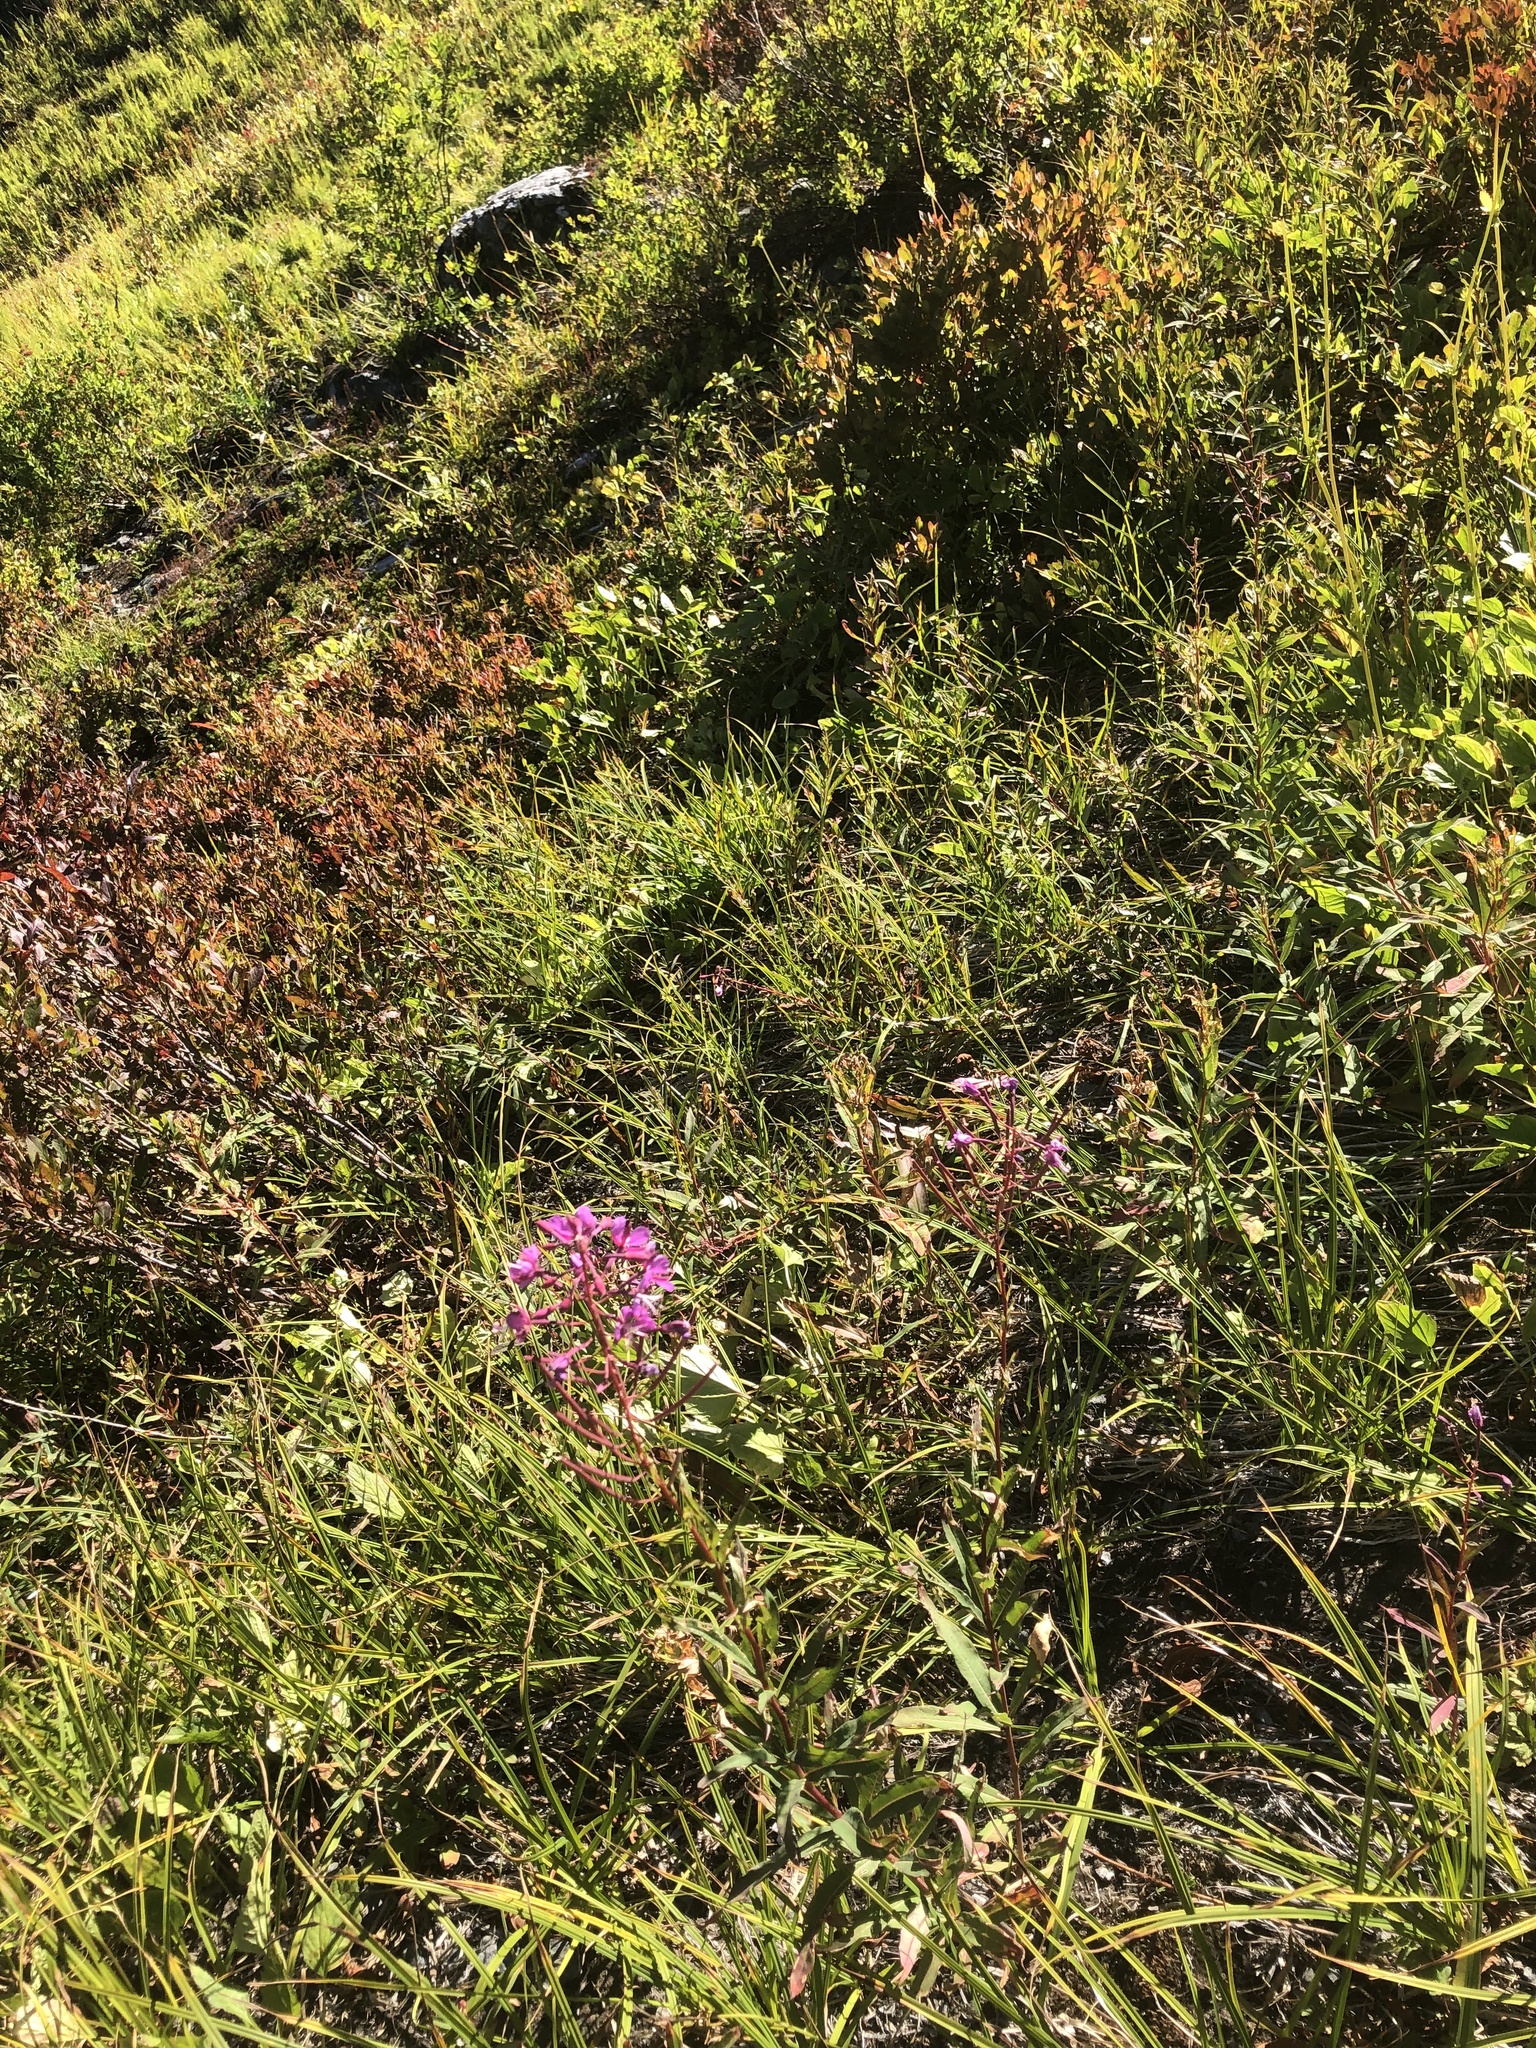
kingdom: Plantae
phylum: Tracheophyta
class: Magnoliopsida
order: Myrtales
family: Onagraceae
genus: Chamaenerion
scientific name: Chamaenerion angustifolium
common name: Fireweed
